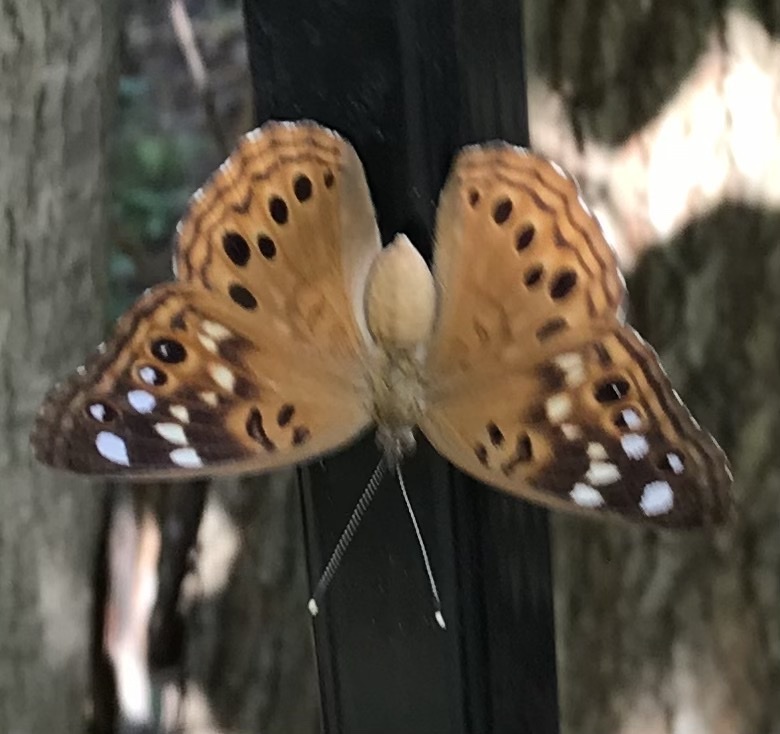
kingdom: Animalia
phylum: Arthropoda
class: Insecta
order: Lepidoptera
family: Nymphalidae
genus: Asterocampa
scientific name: Asterocampa celtis
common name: Hackberry emperor
